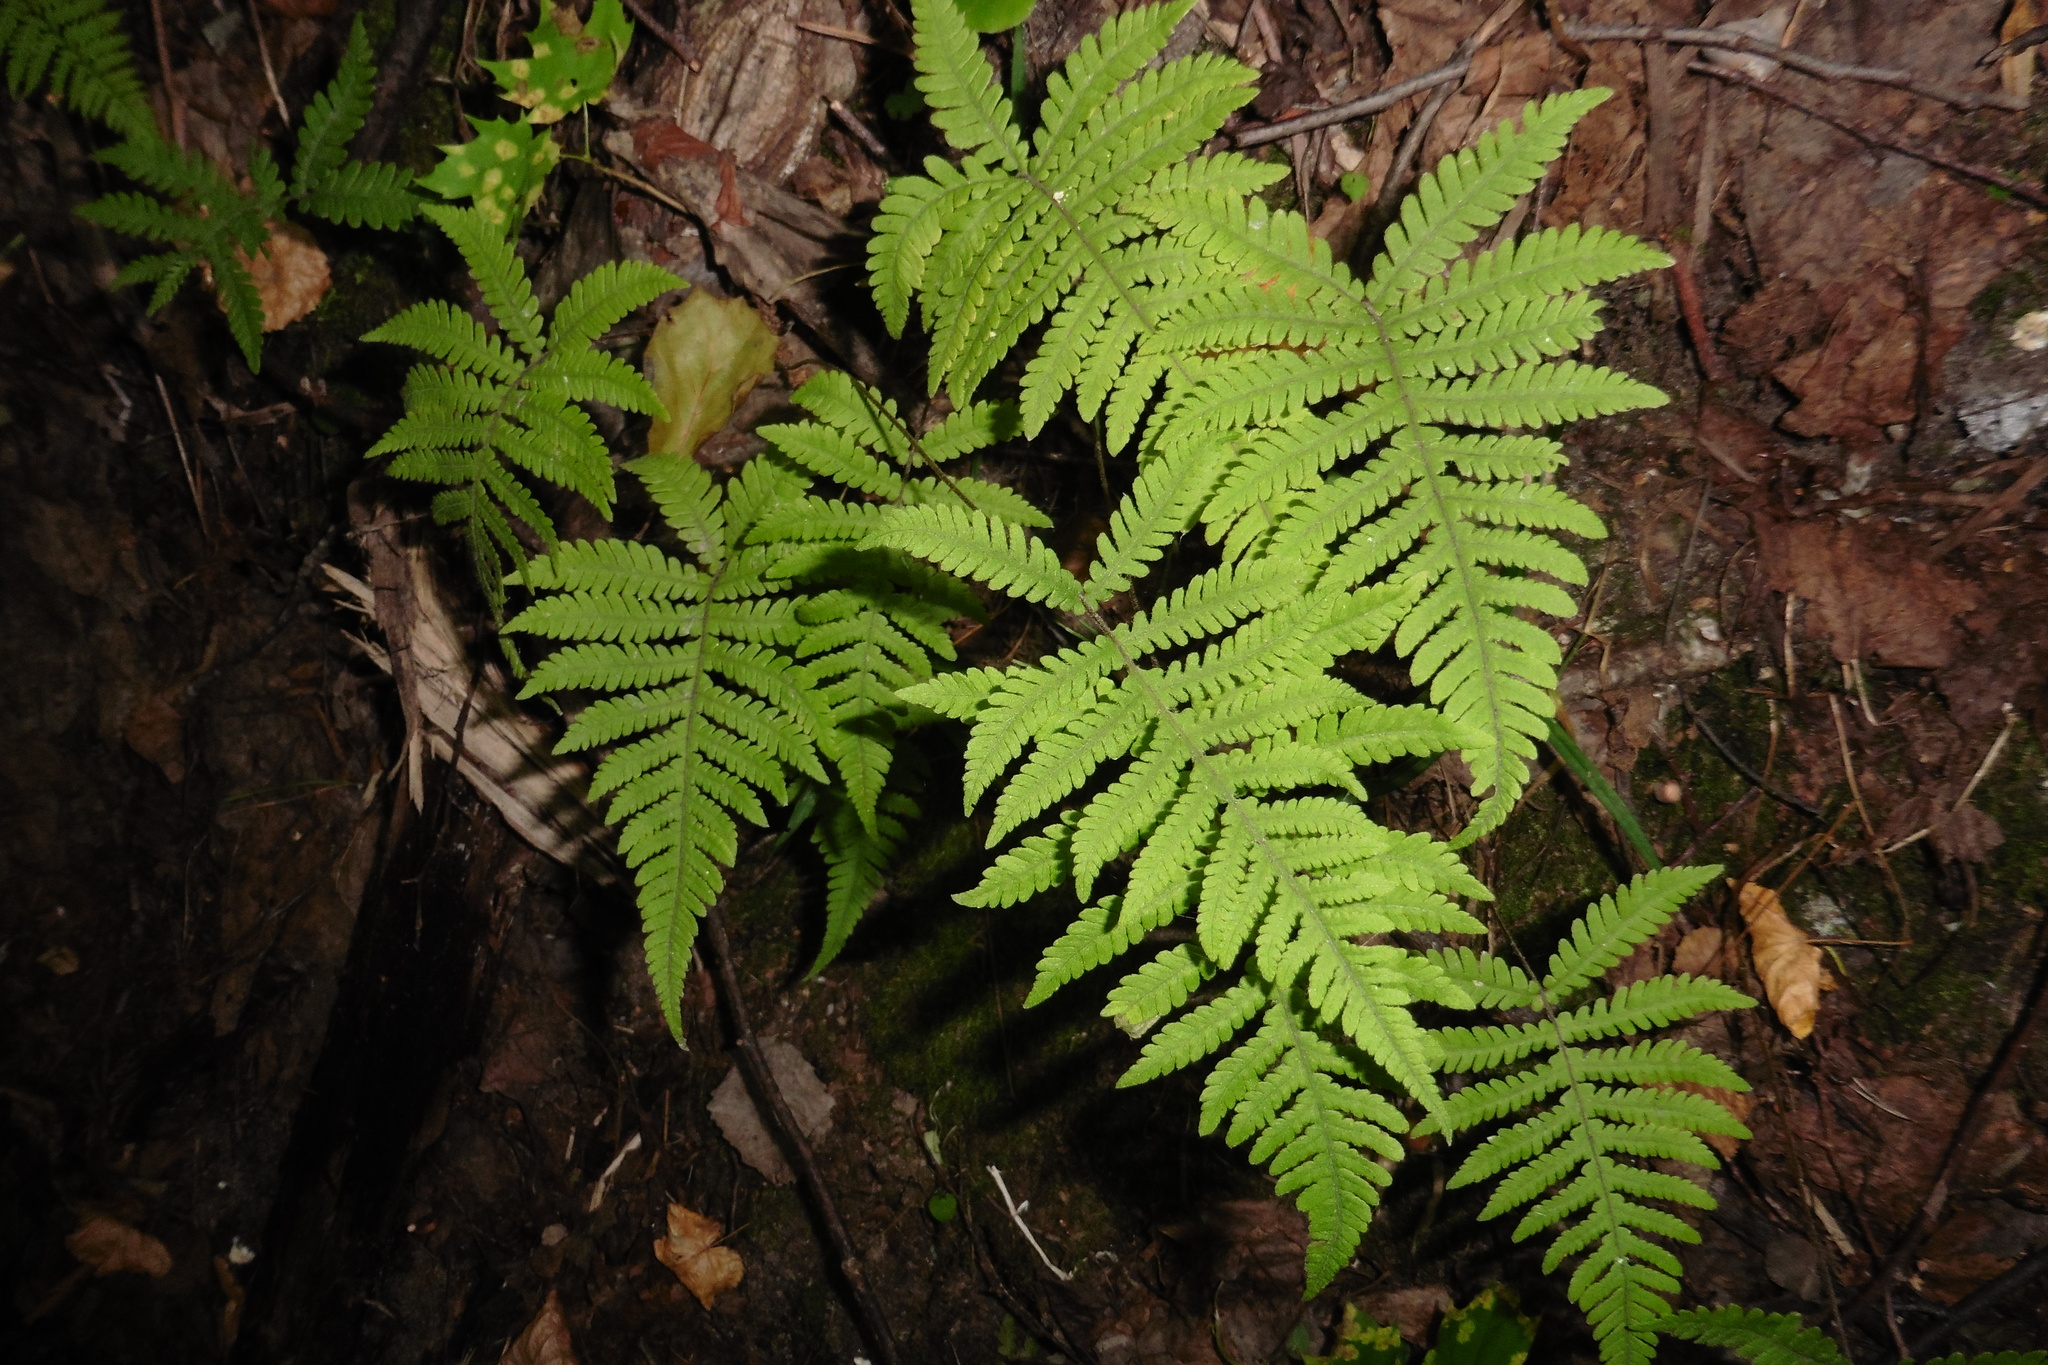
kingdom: Plantae
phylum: Tracheophyta
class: Polypodiopsida
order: Polypodiales
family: Thelypteridaceae
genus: Phegopteris
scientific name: Phegopteris connectilis
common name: Beech fern
